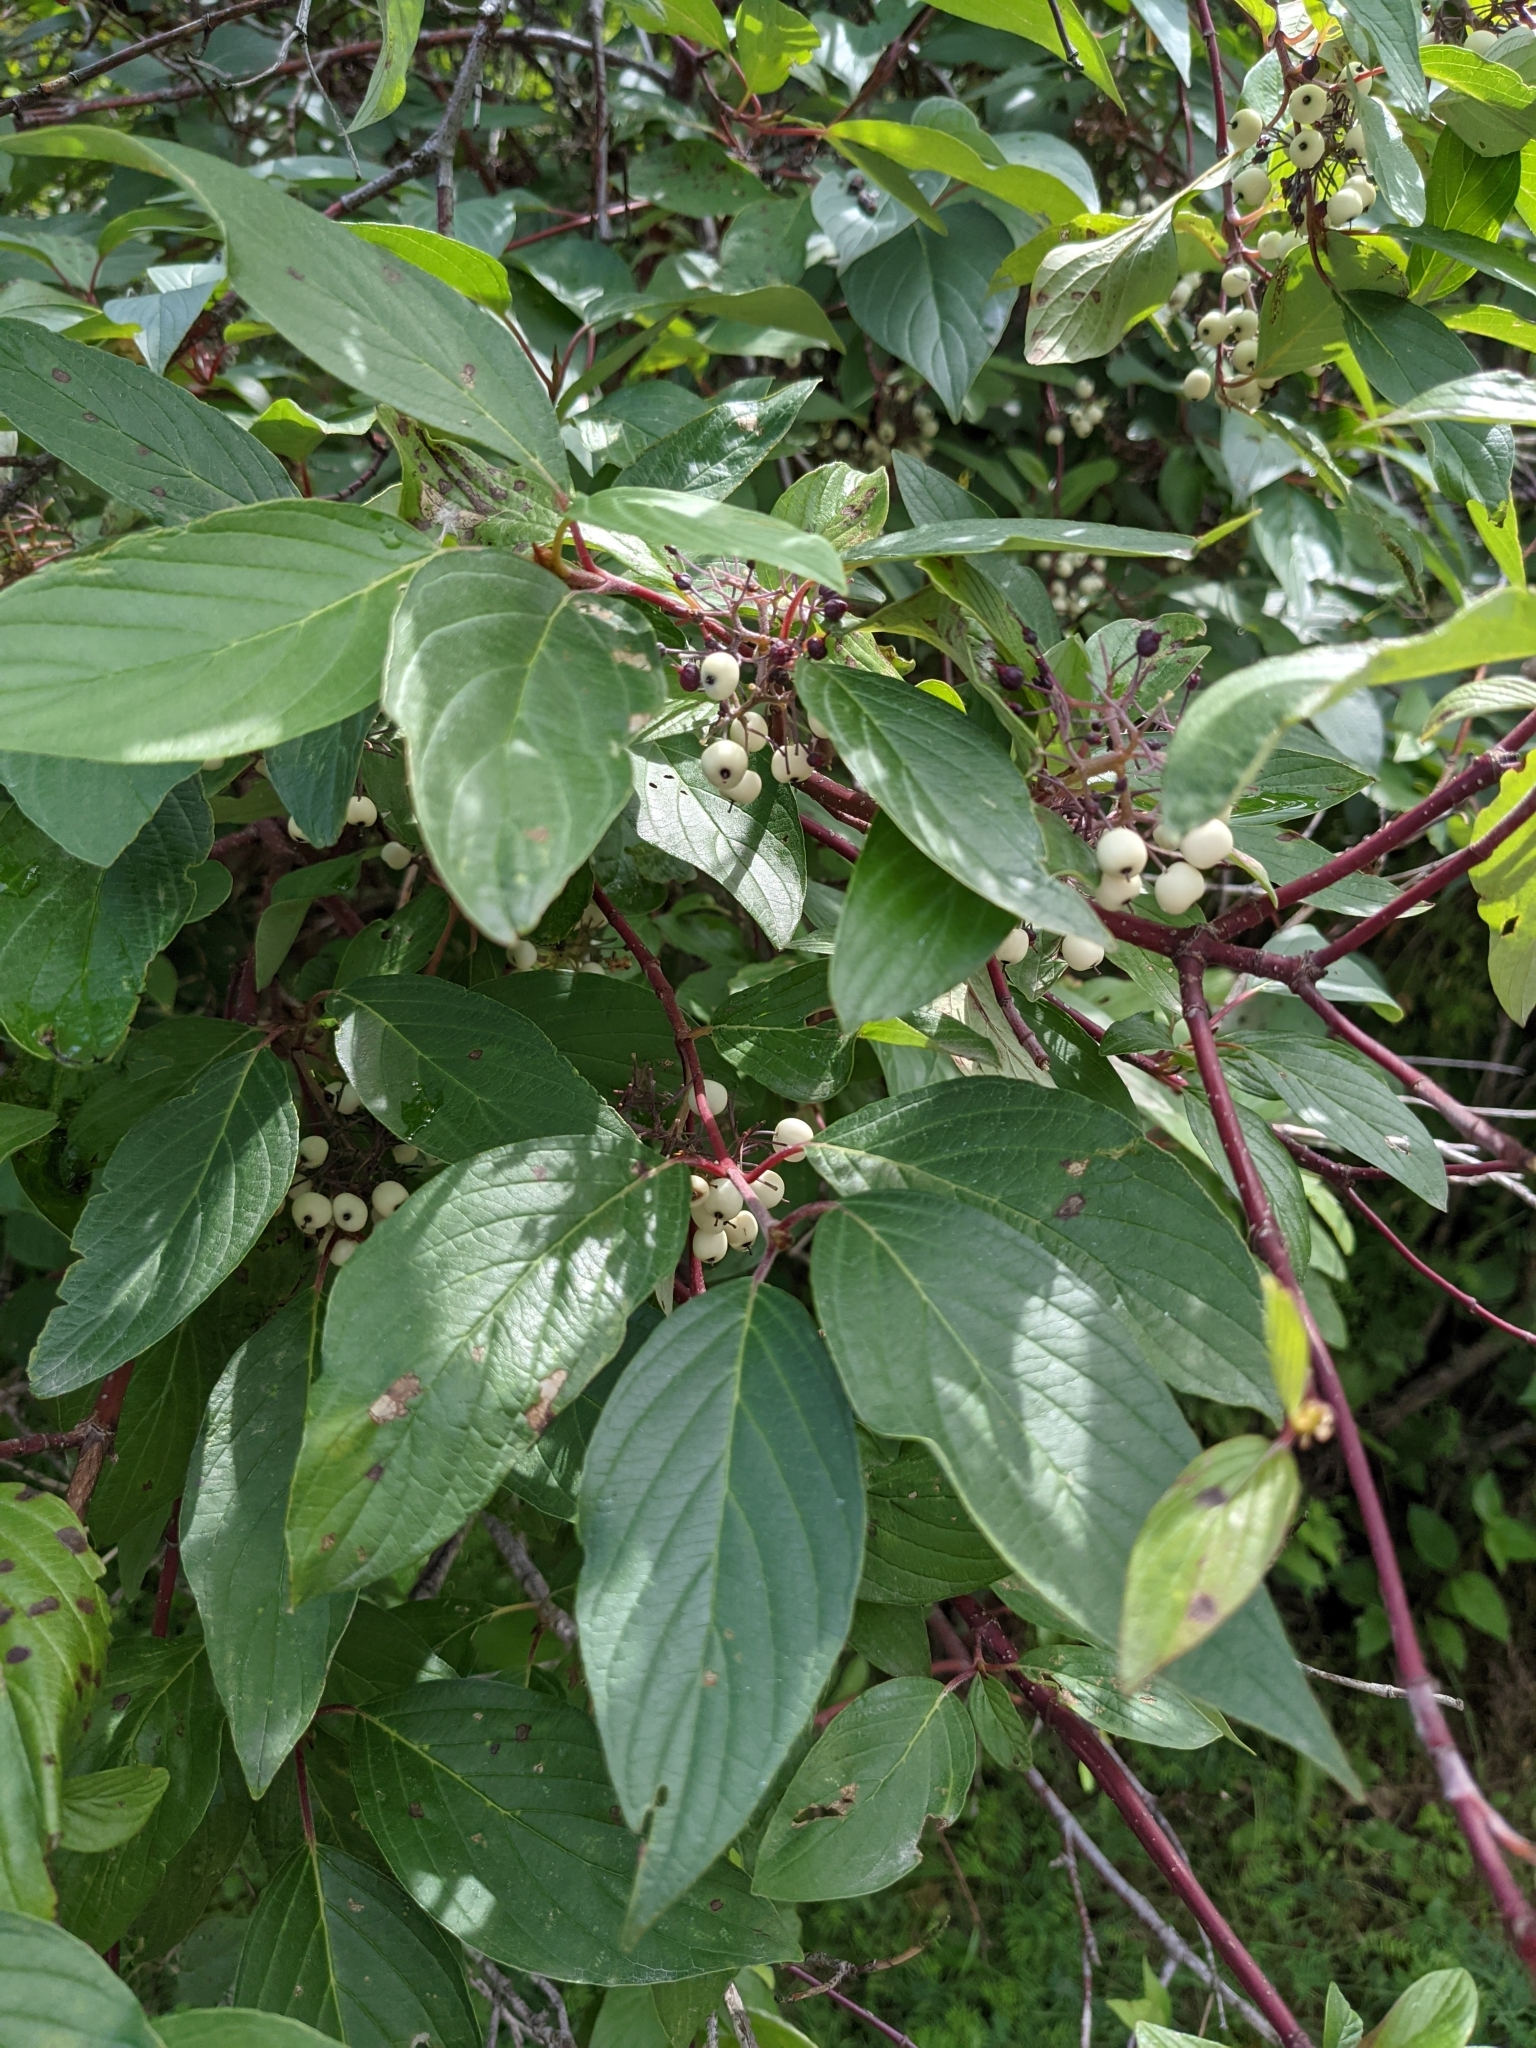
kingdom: Plantae
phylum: Tracheophyta
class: Magnoliopsida
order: Cornales
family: Cornaceae
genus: Cornus
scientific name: Cornus sericea
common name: Red-osier dogwood
